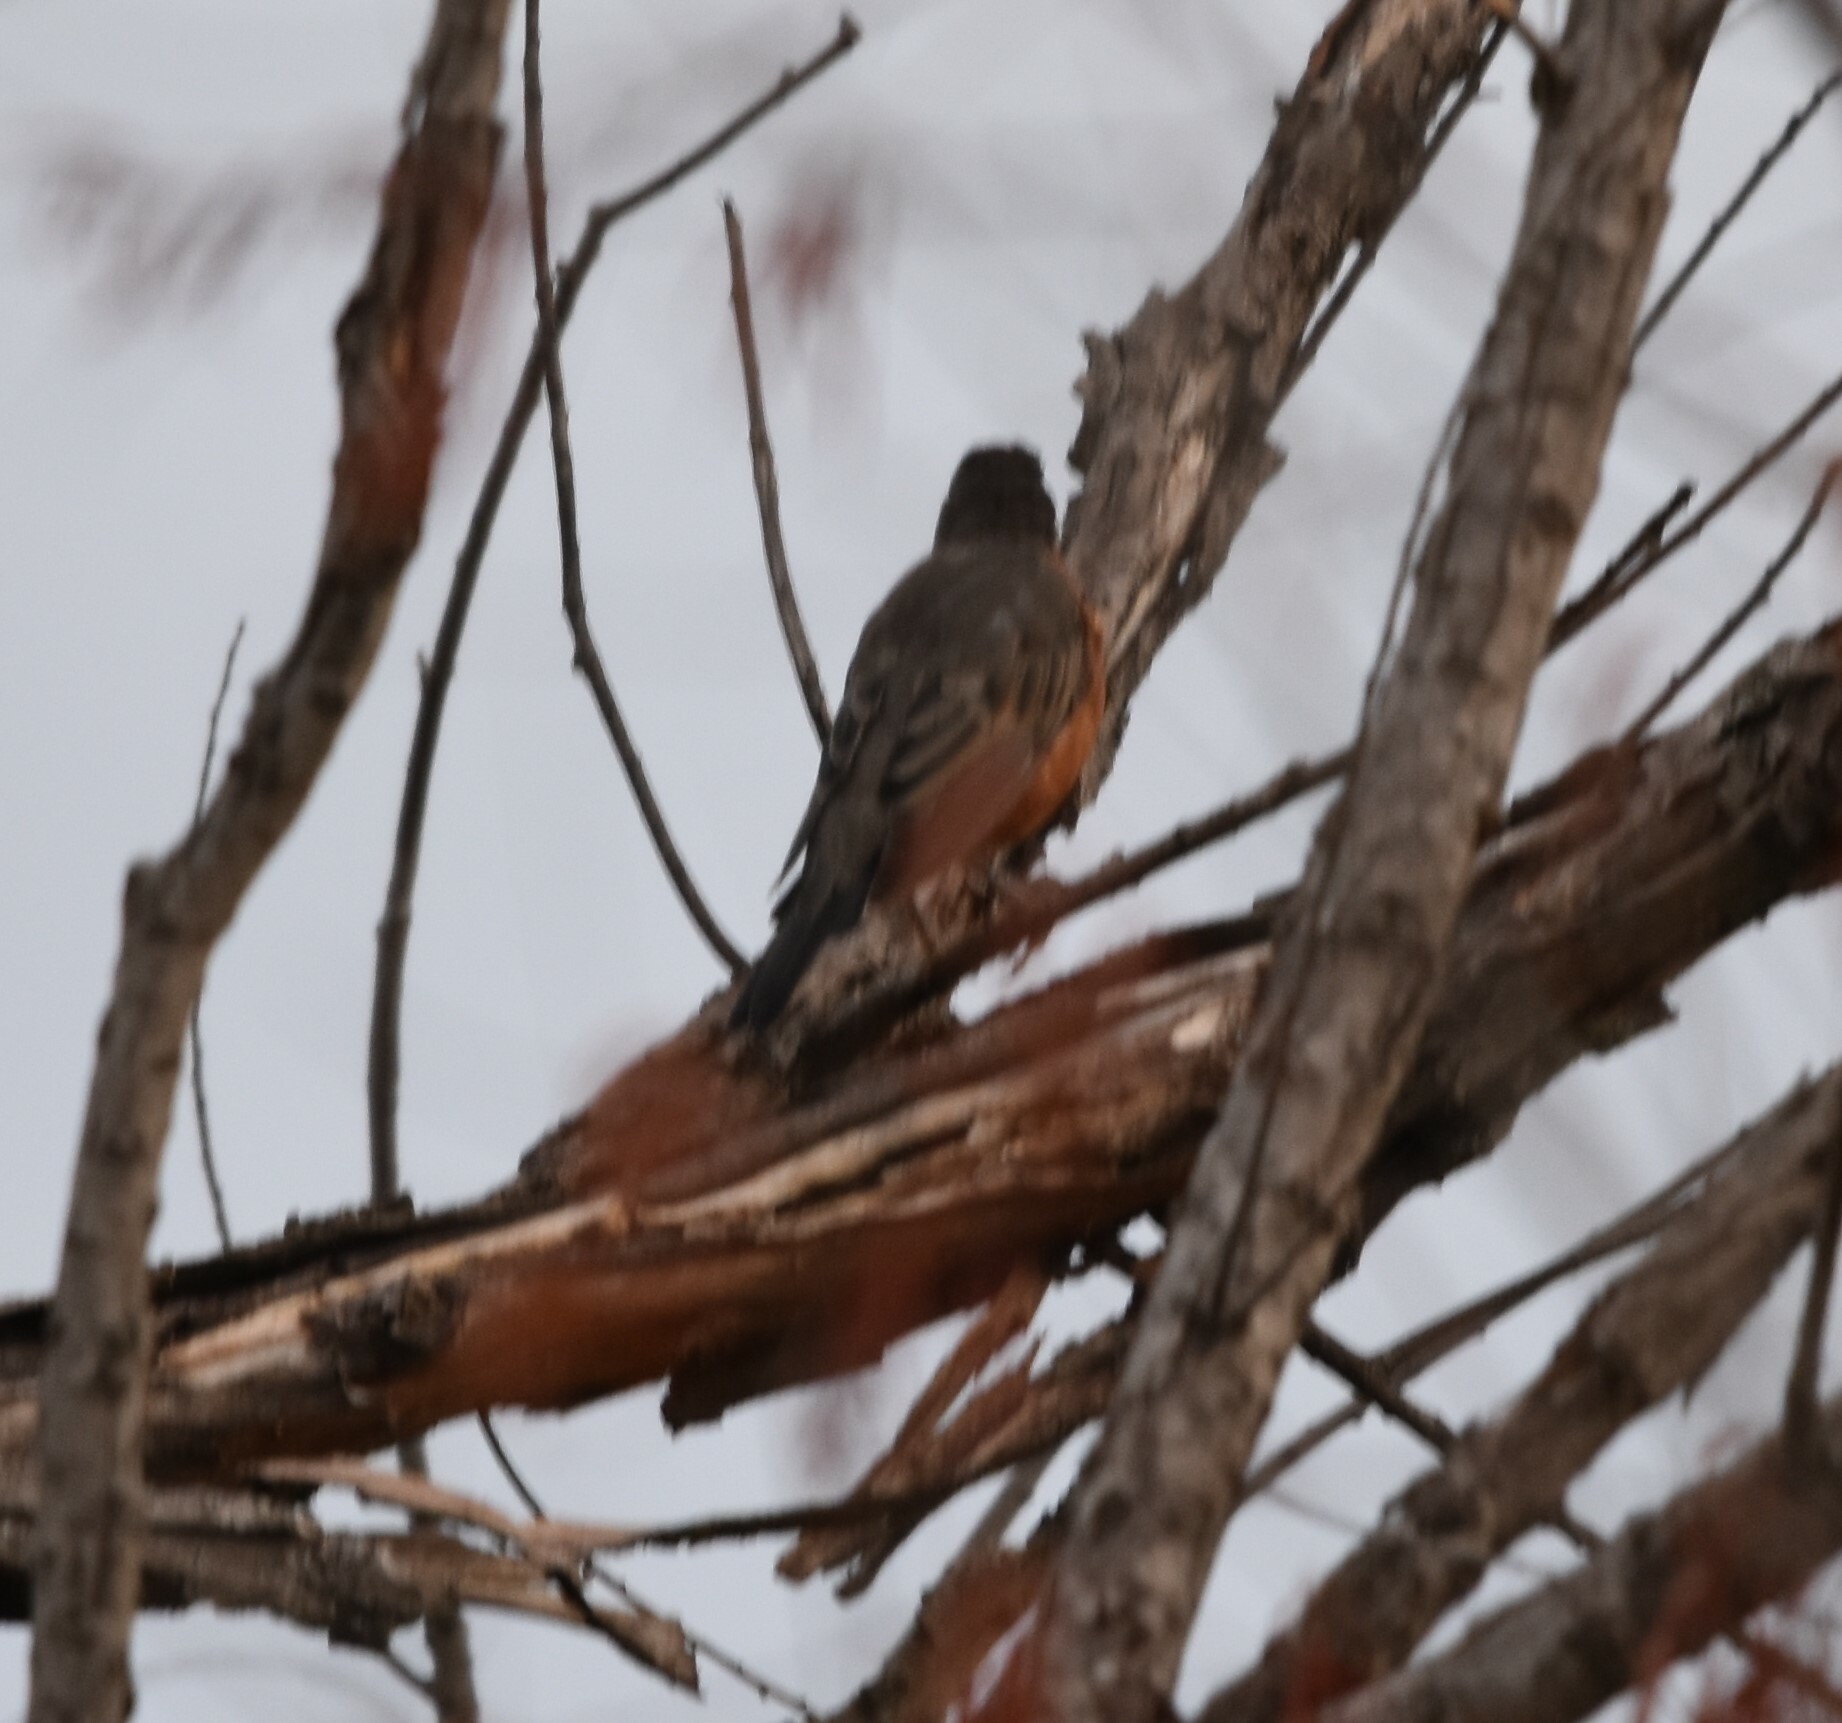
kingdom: Animalia
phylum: Chordata
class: Aves
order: Passeriformes
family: Turdidae
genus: Turdus
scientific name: Turdus migratorius
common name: American robin
